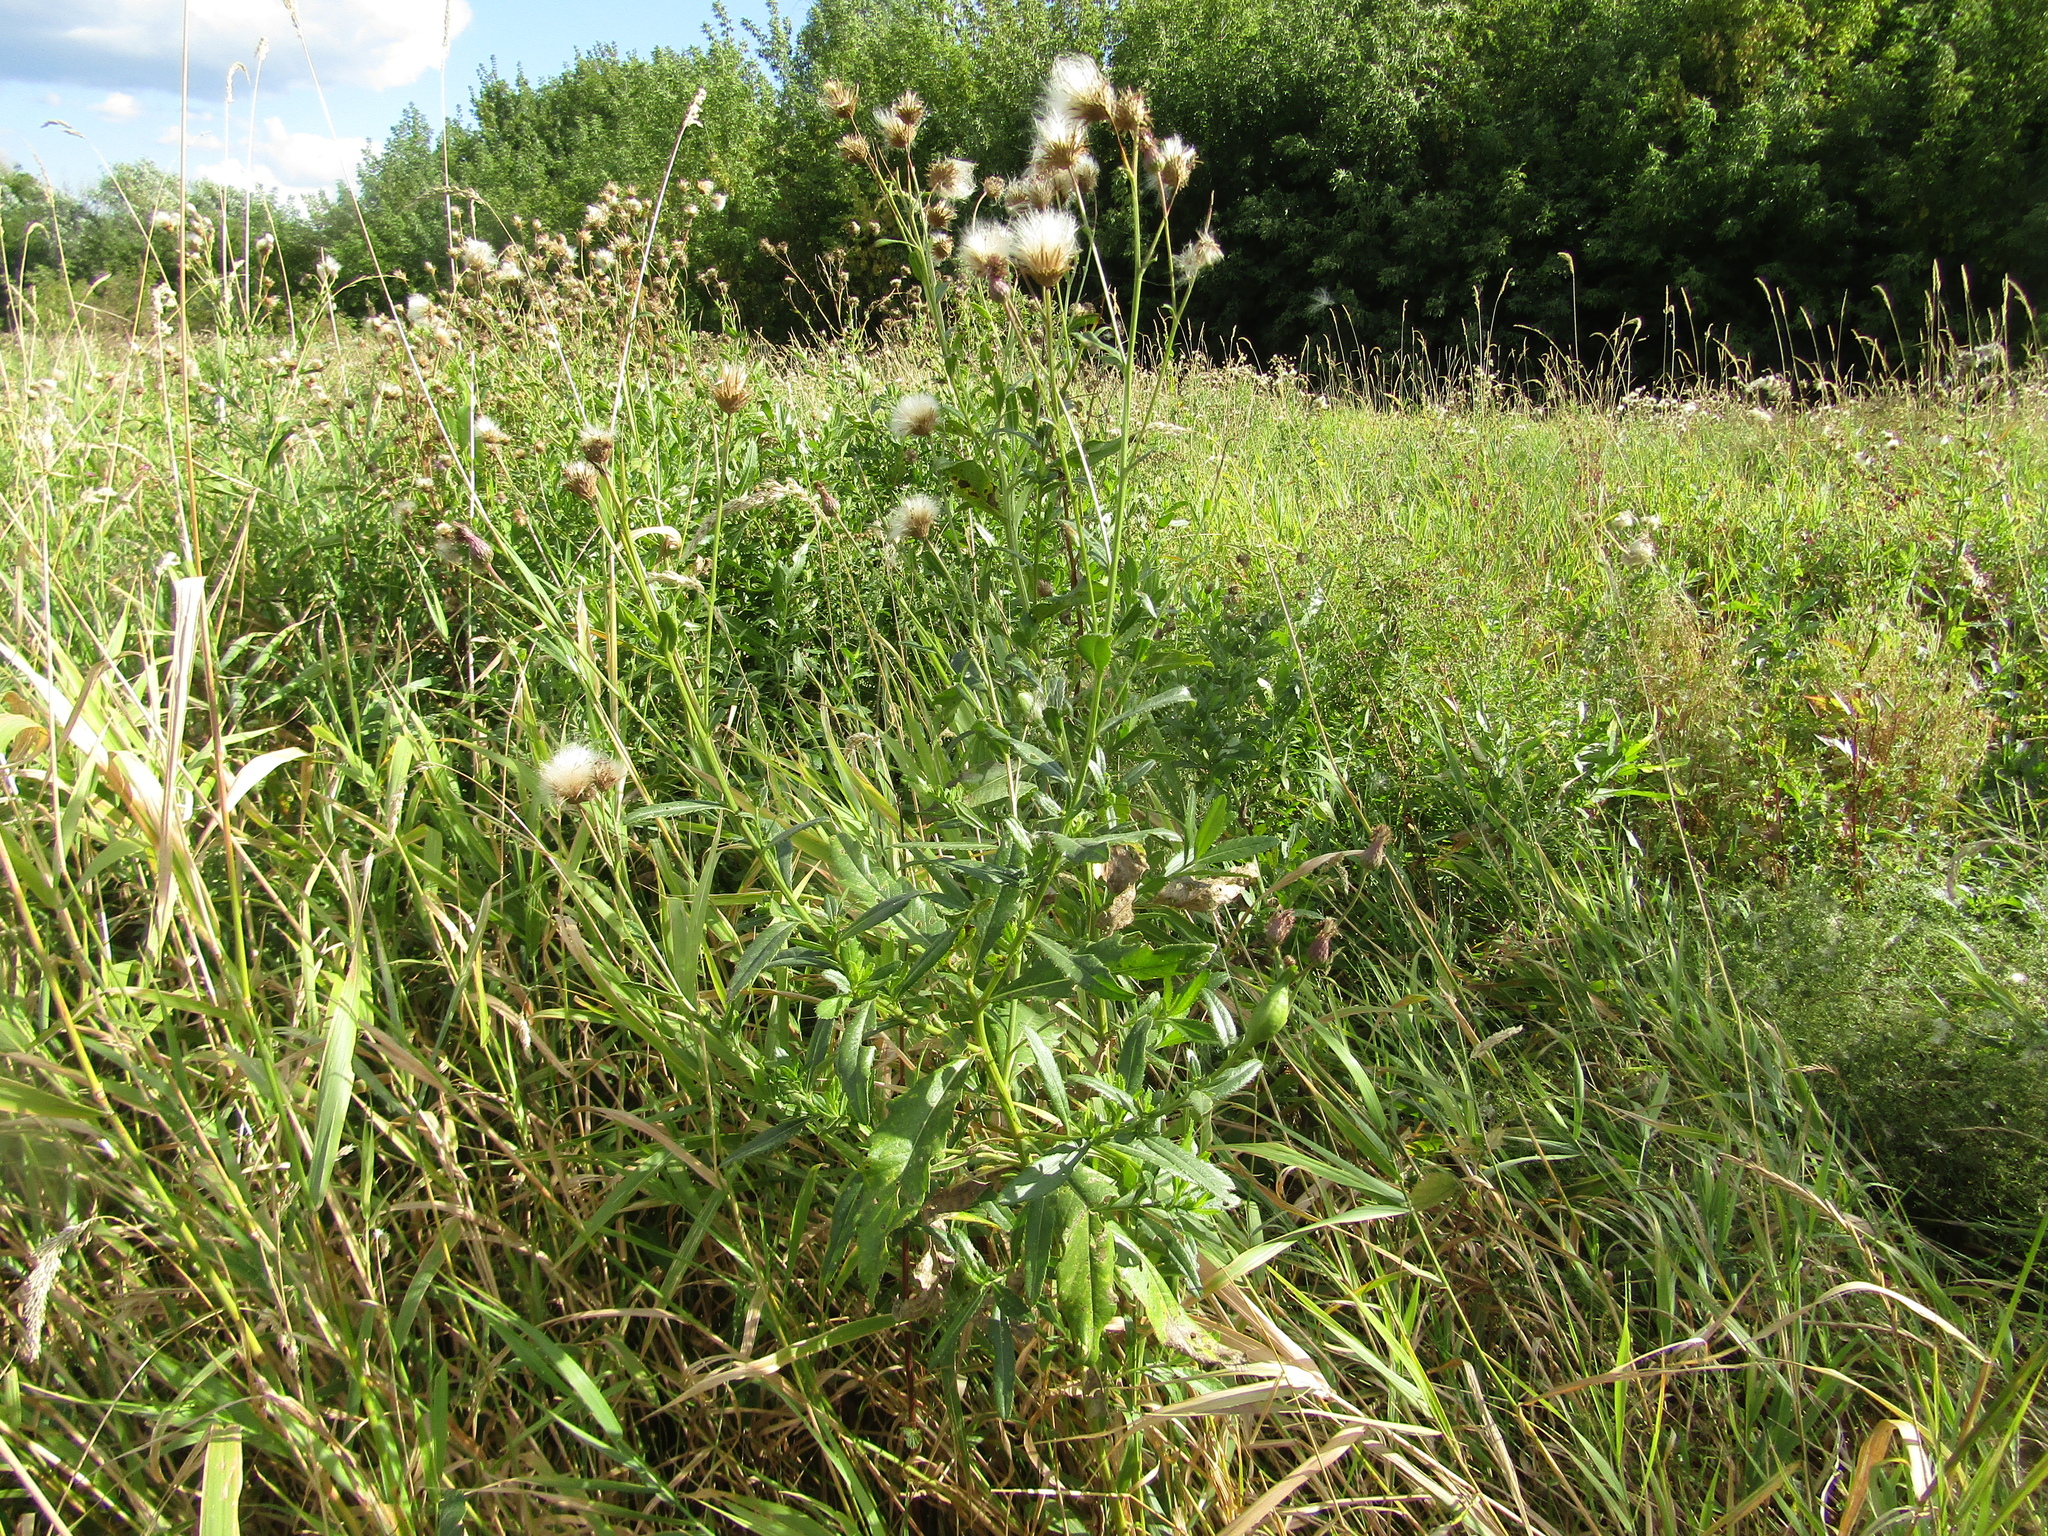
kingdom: Plantae
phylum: Tracheophyta
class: Magnoliopsida
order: Asterales
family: Asteraceae
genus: Cirsium
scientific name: Cirsium arvense
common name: Creeping thistle
